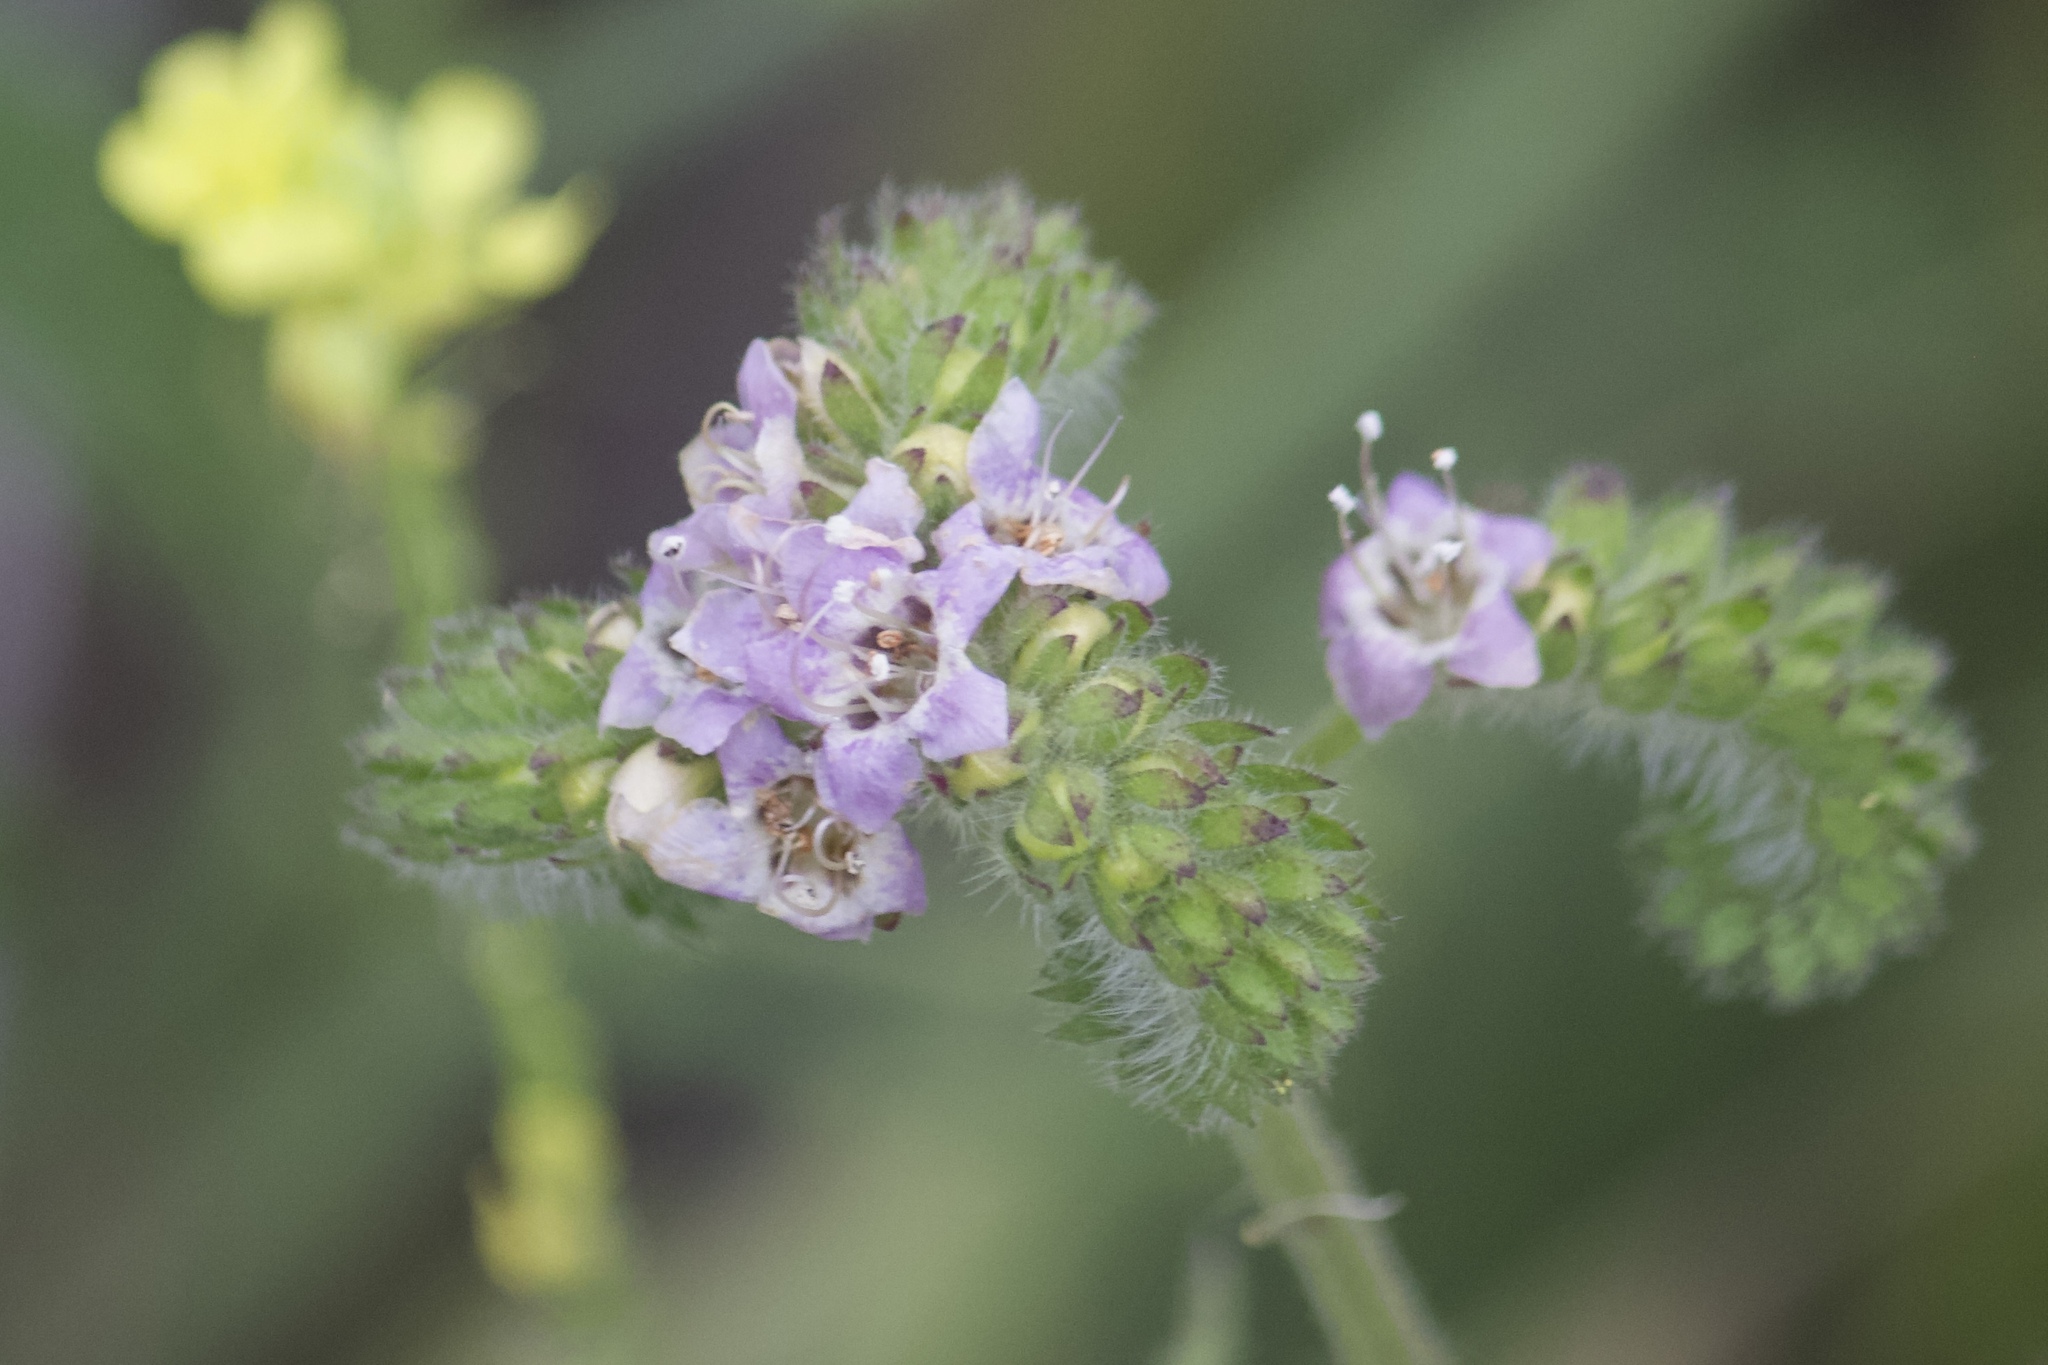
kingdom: Plantae
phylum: Tracheophyta
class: Magnoliopsida
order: Boraginales
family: Hydrophyllaceae
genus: Phacelia
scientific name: Phacelia ramosissima
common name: Branching phacelia
